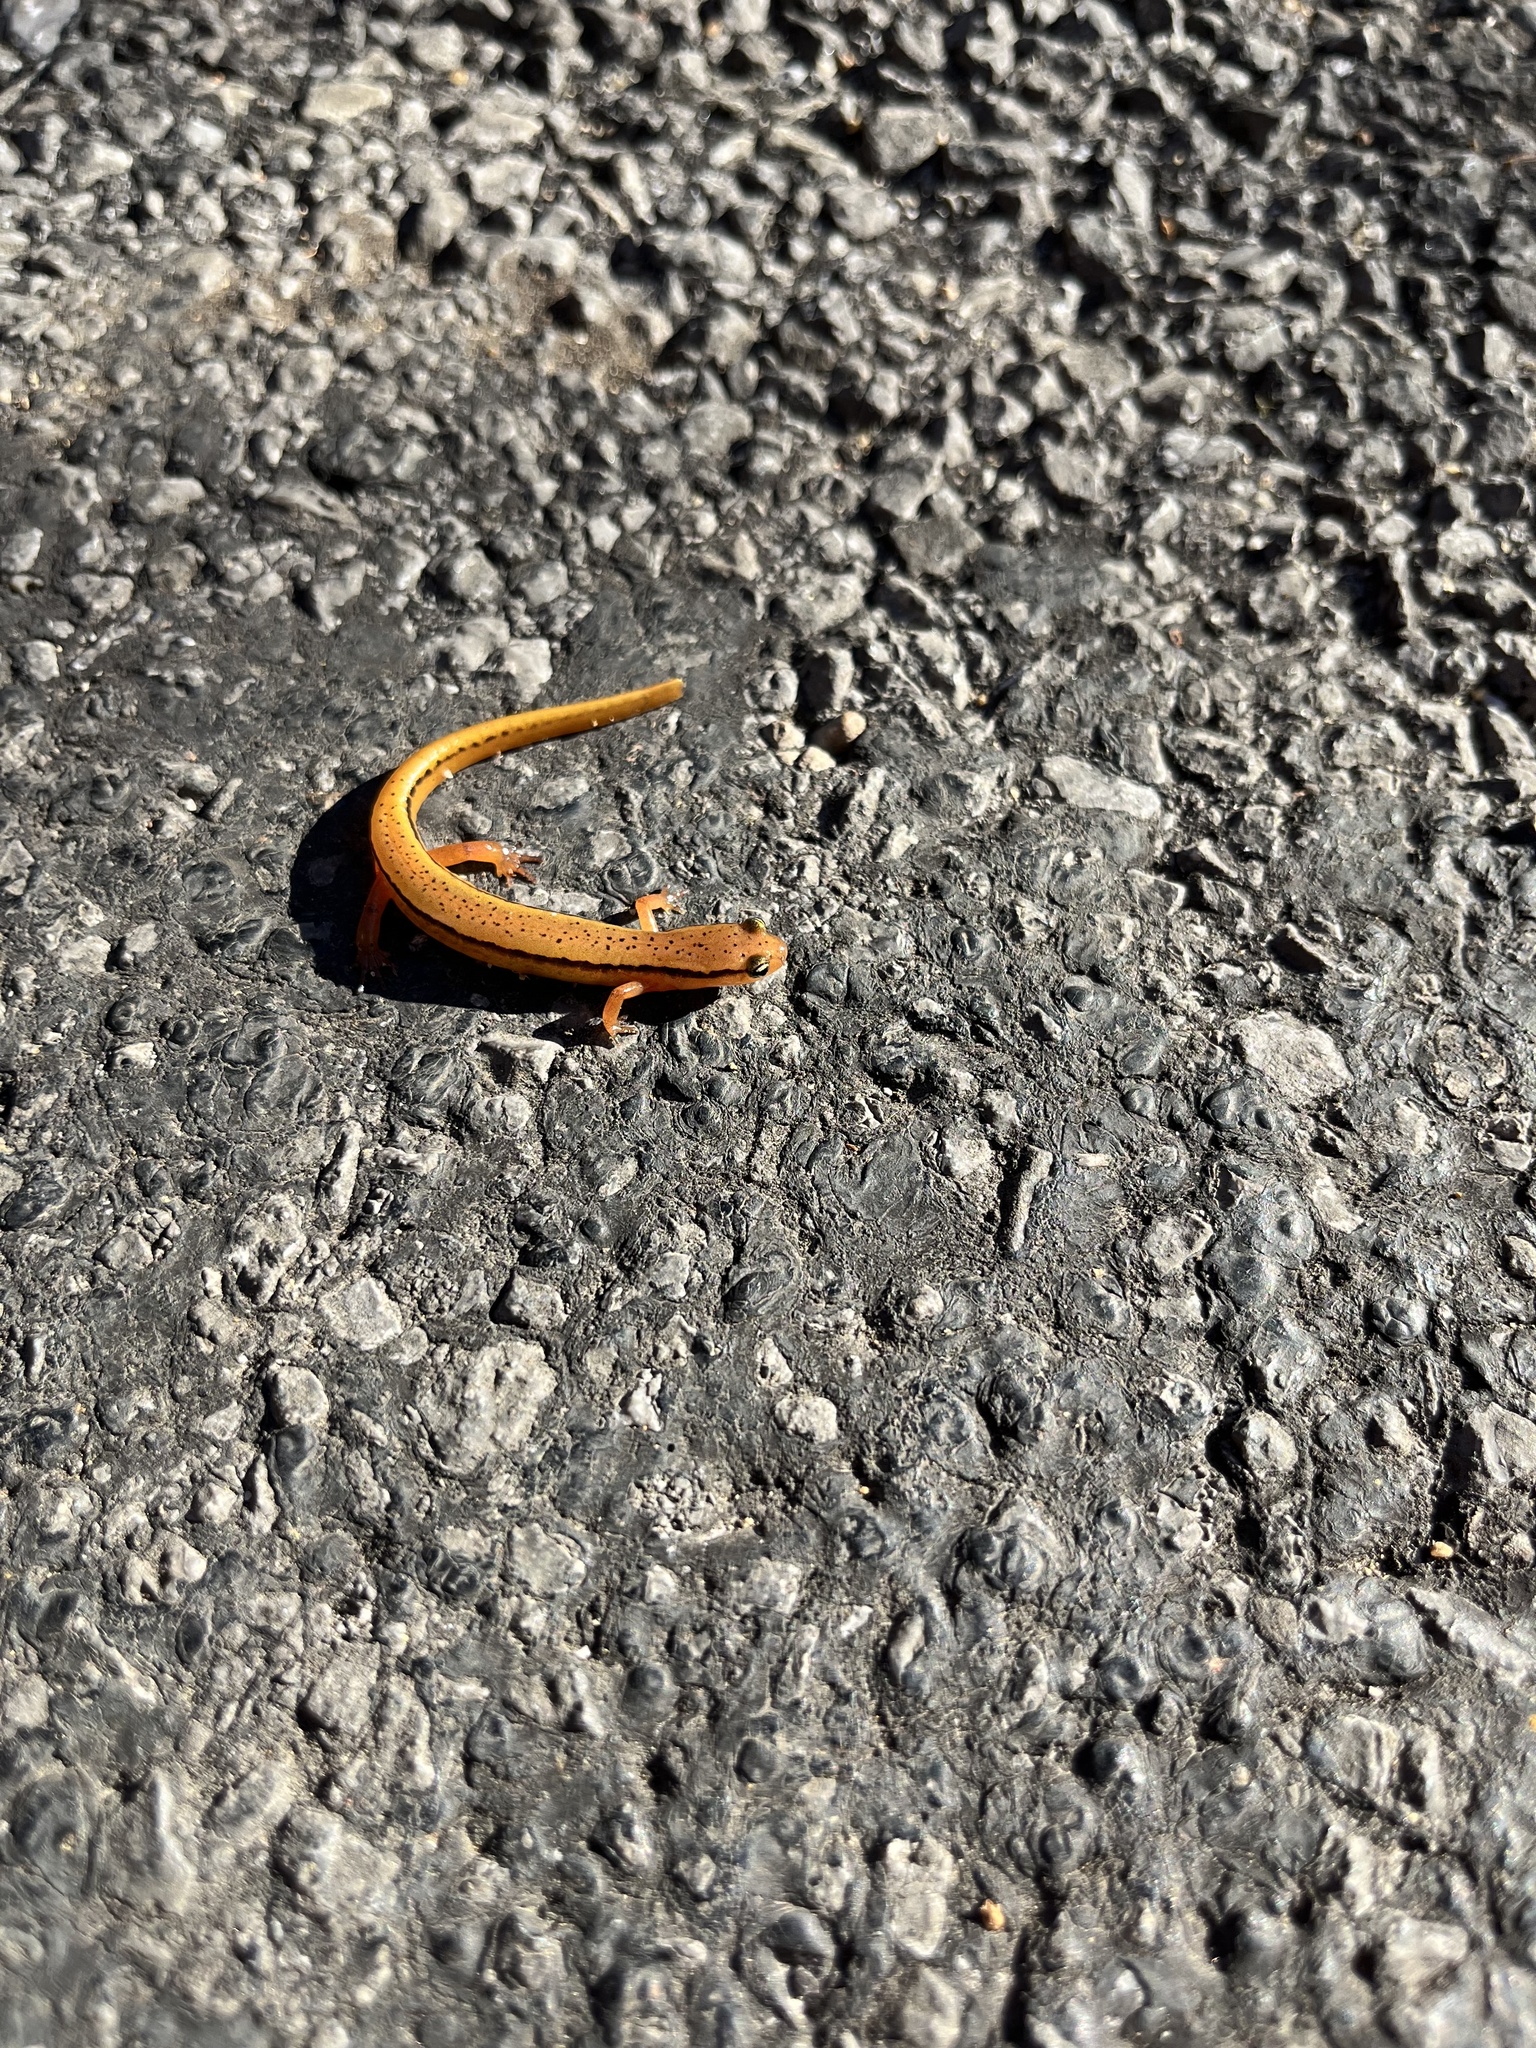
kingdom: Animalia
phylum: Chordata
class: Amphibia
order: Caudata
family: Plethodontidae
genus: Eurycea
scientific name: Eurycea wilderae
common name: Blue ridge two-lined salamander
